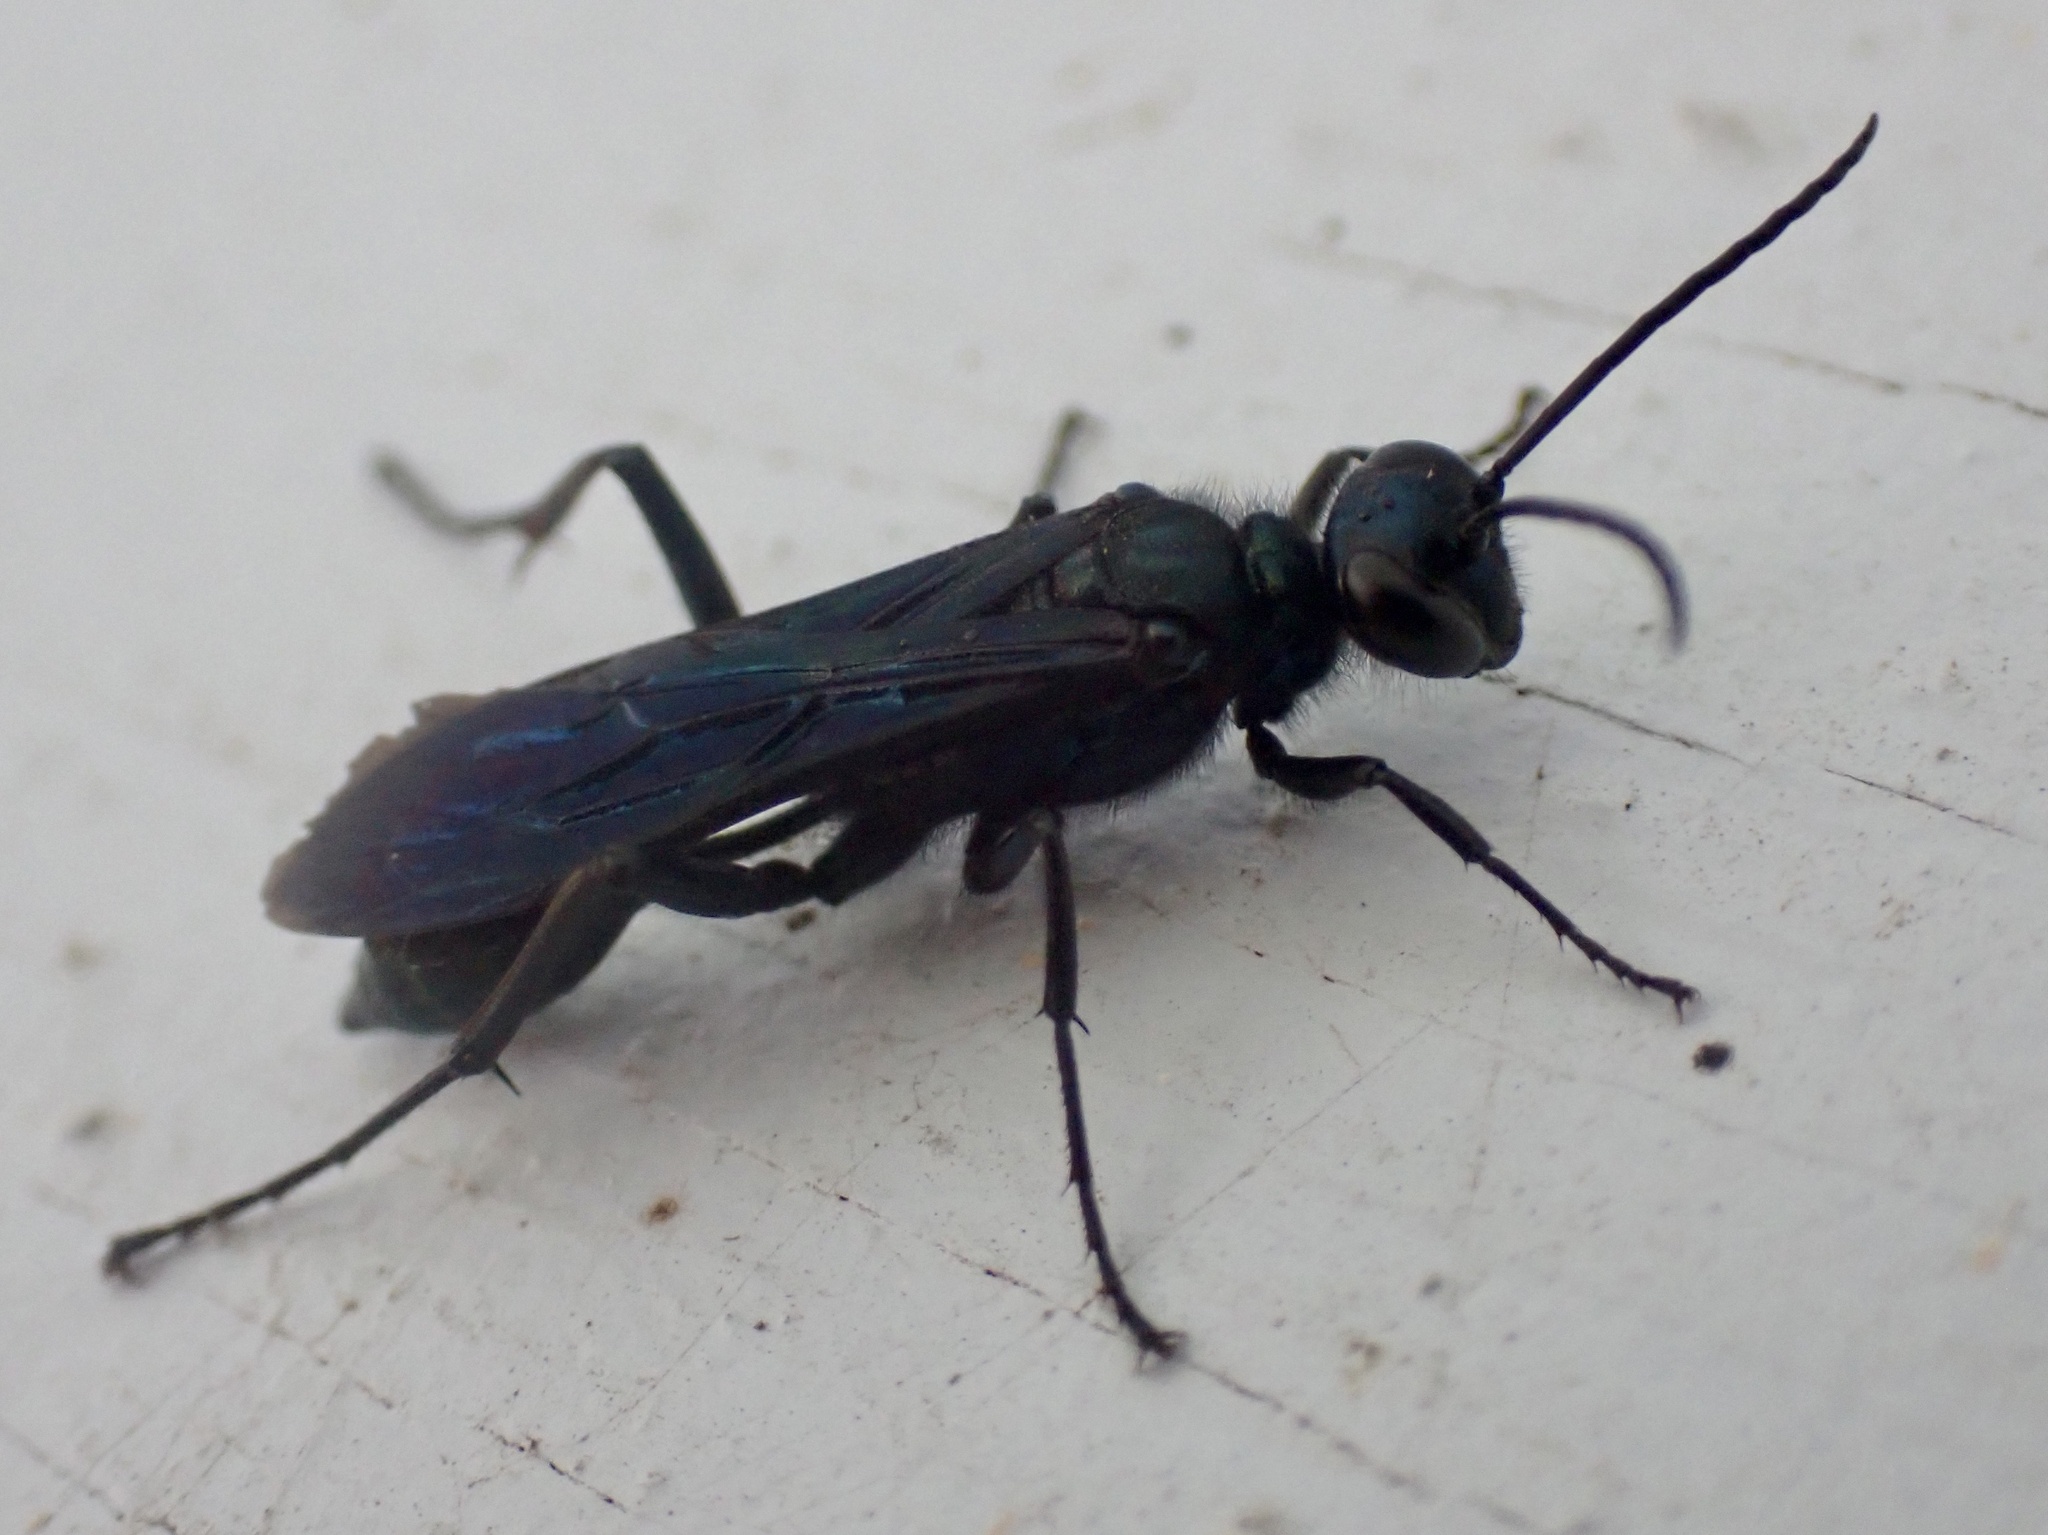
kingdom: Animalia
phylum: Arthropoda
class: Insecta
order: Hymenoptera
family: Sphecidae
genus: Chalybion
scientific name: Chalybion californicum
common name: Mud dauber
